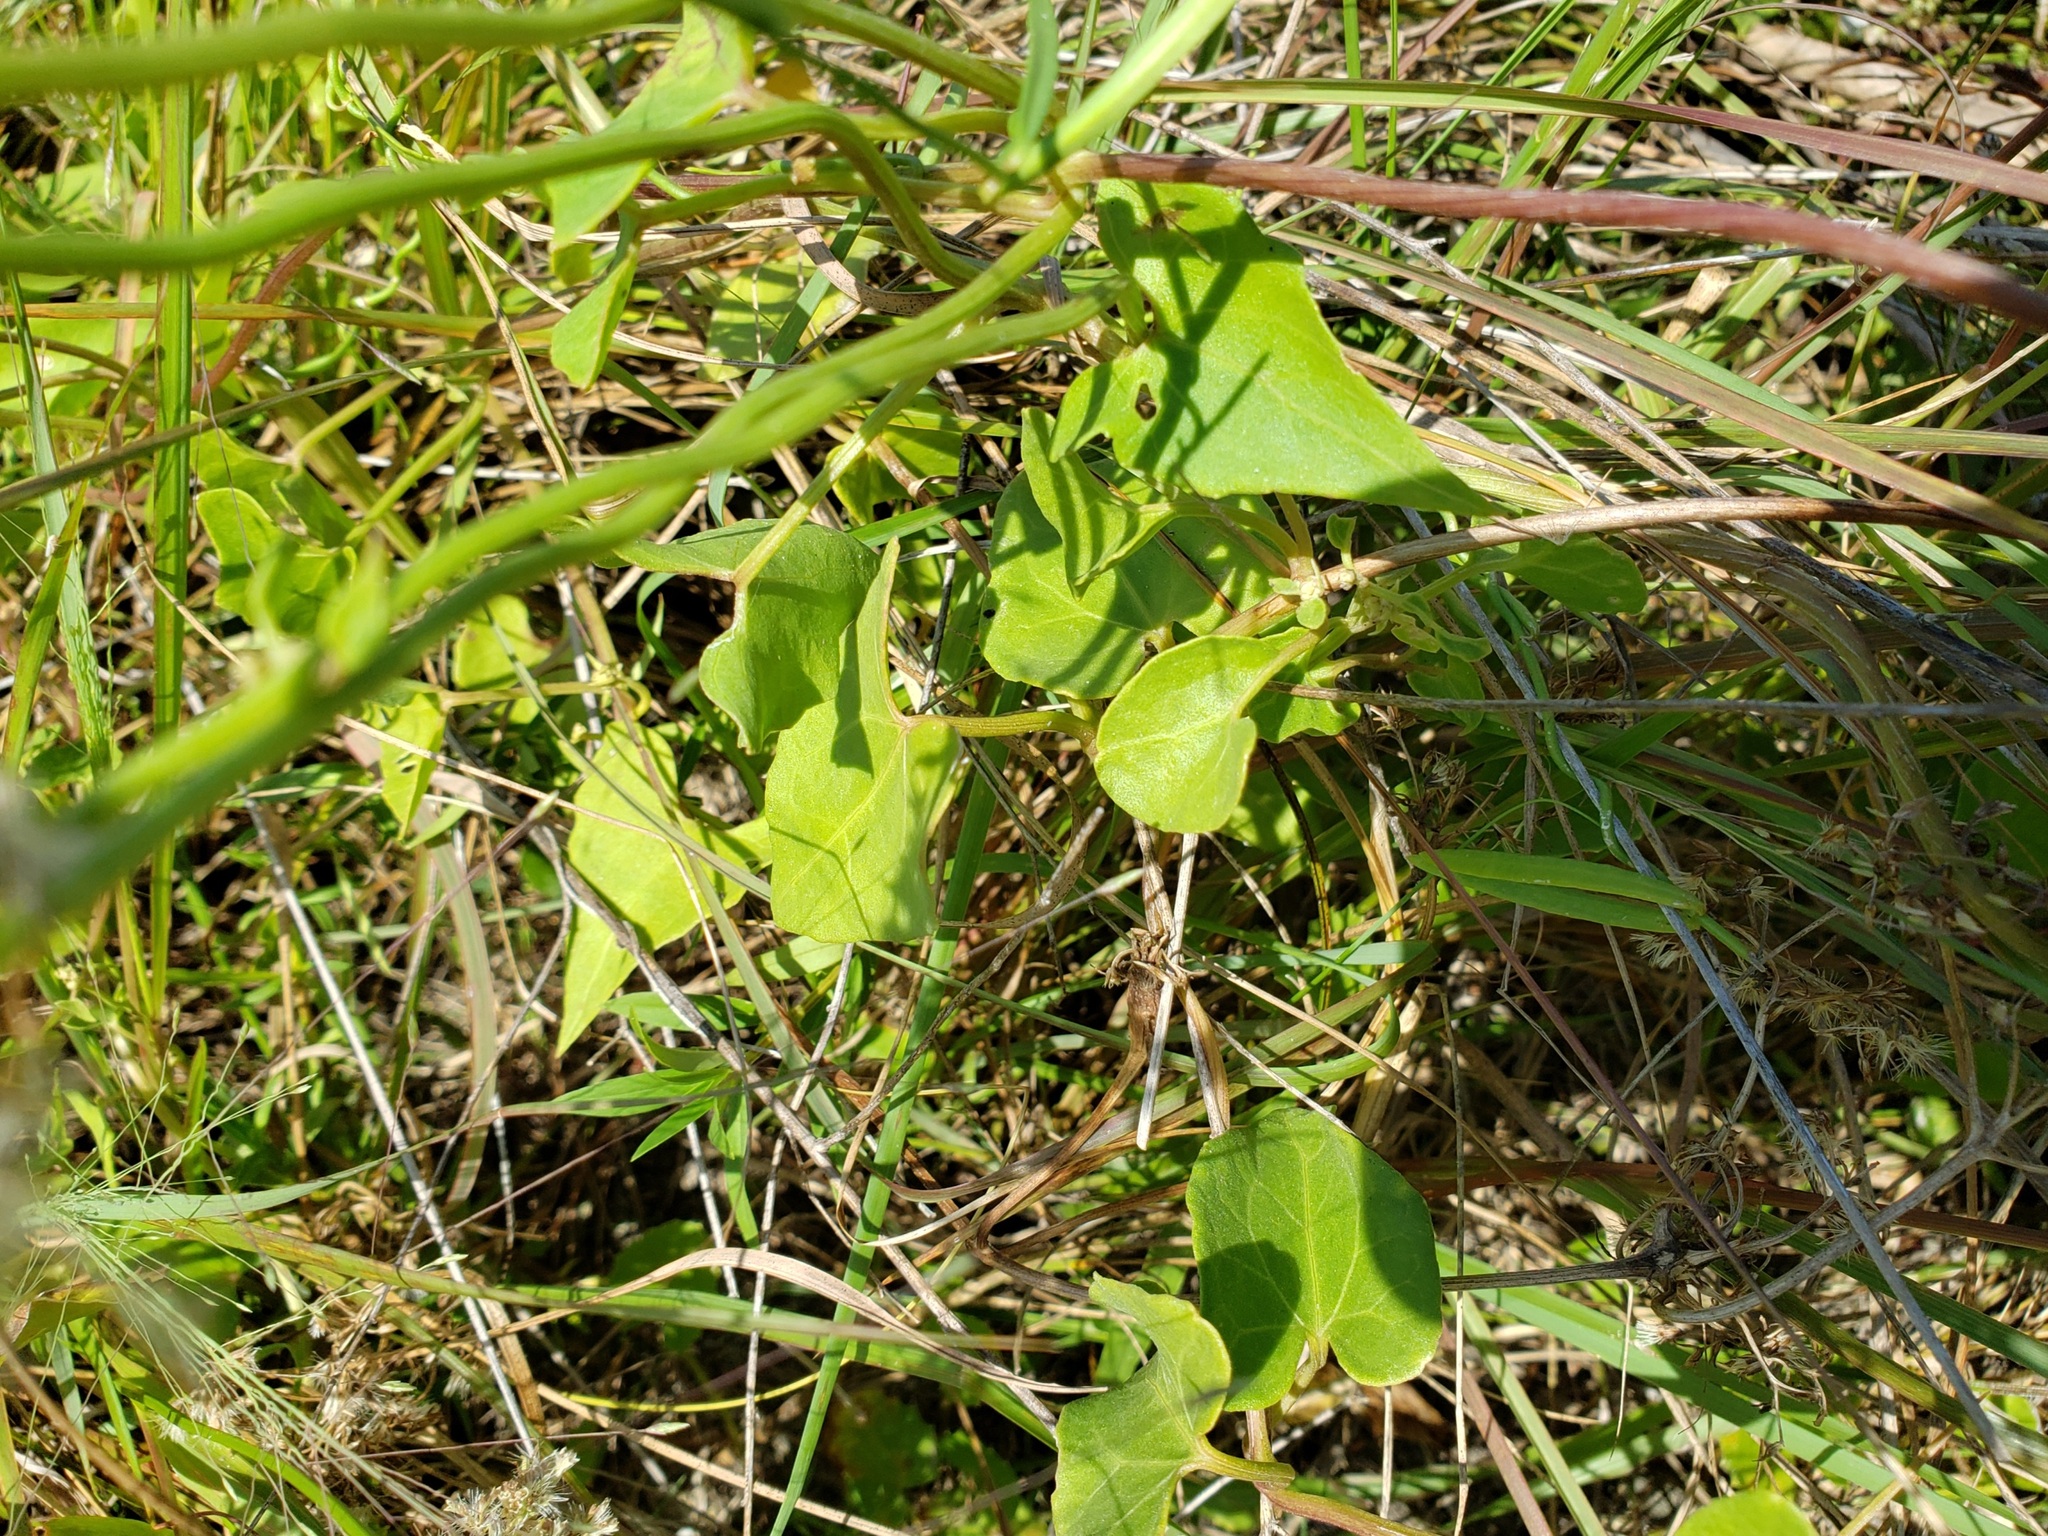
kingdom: Plantae
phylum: Tracheophyta
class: Magnoliopsida
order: Asterales
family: Asteraceae
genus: Mikania
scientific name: Mikania scandens
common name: Climbing hempvine
